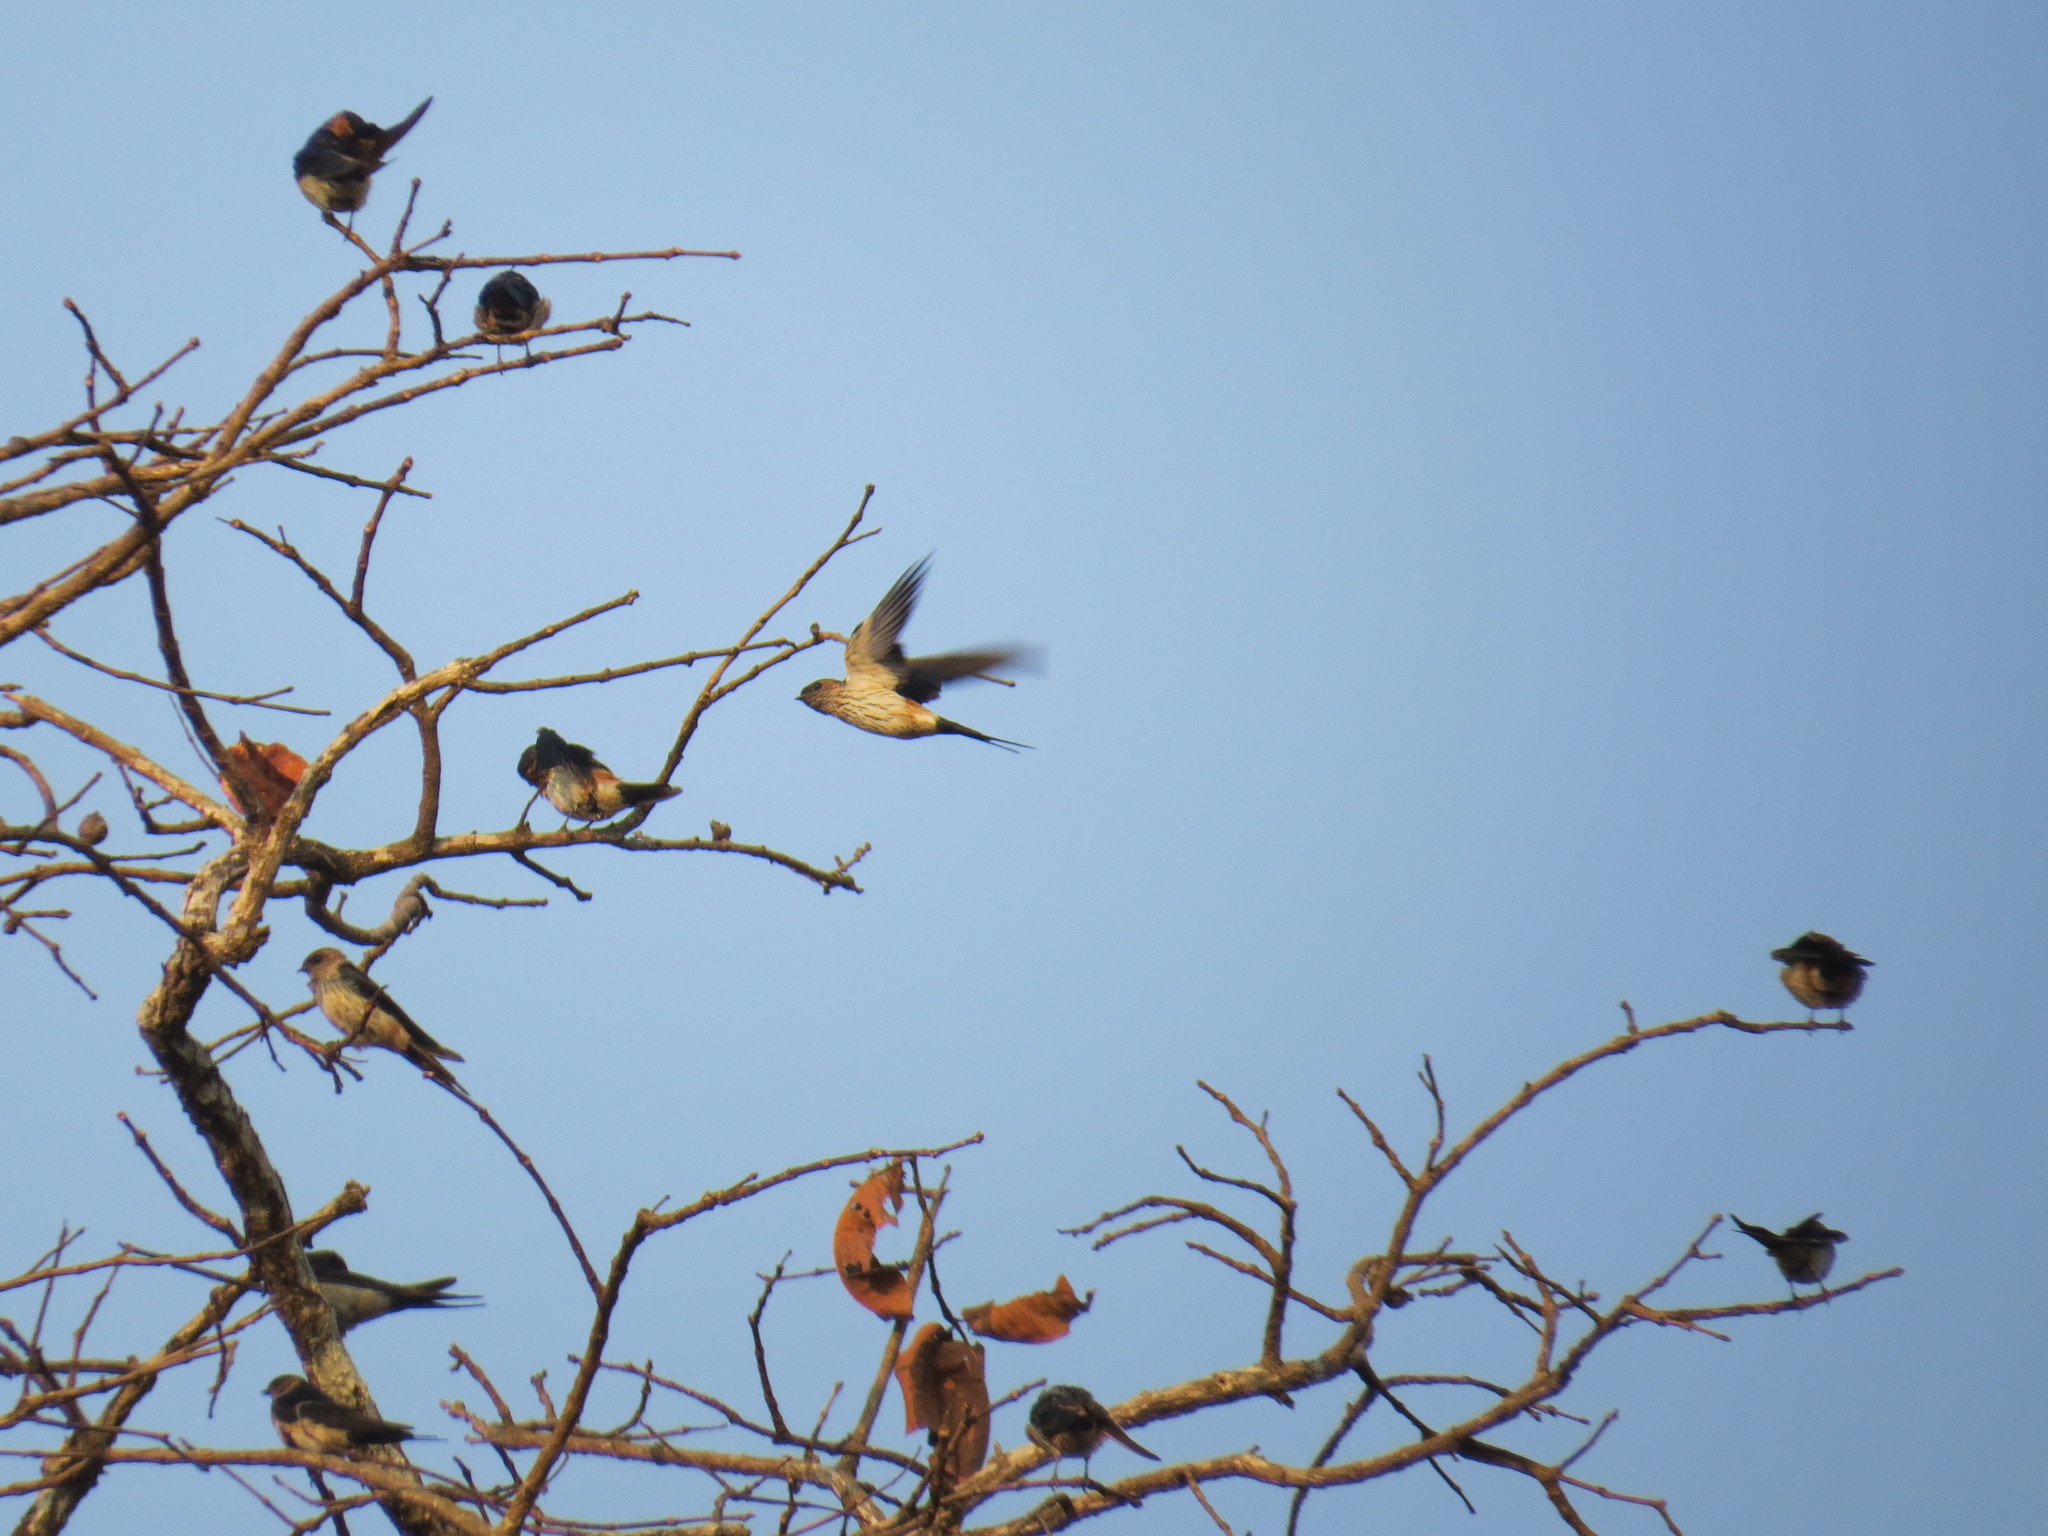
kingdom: Animalia
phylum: Chordata
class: Aves
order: Passeriformes
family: Hirundinidae
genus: Cecropis
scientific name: Cecropis daurica
